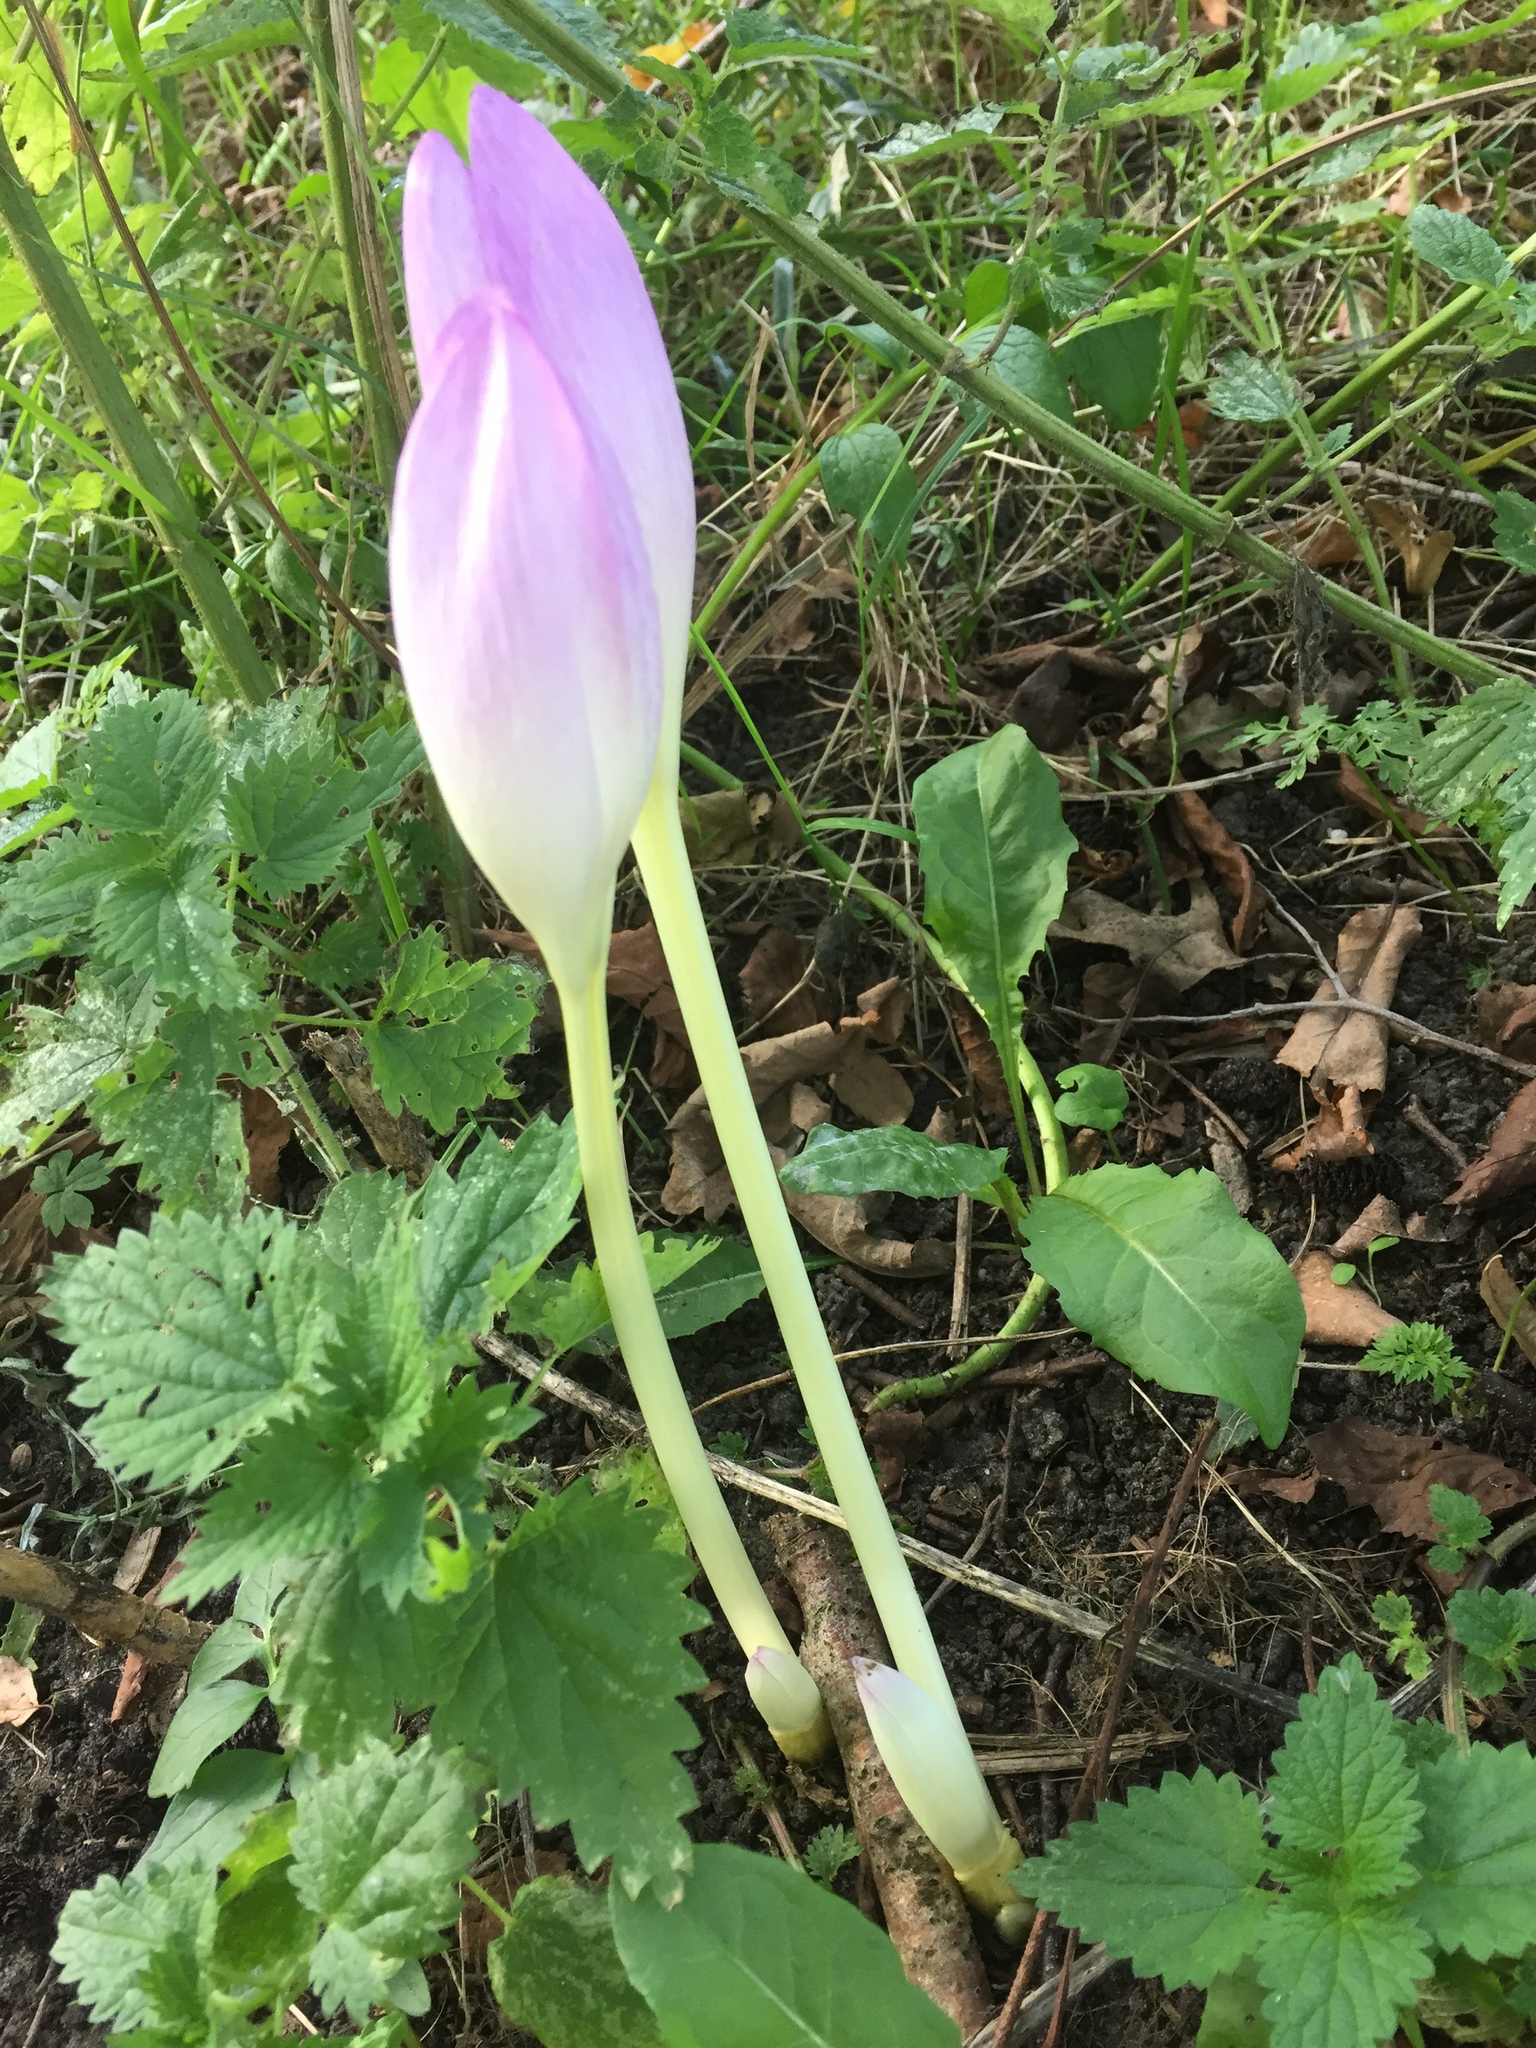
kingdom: Plantae
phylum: Tracheophyta
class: Liliopsida
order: Liliales
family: Colchicaceae
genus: Colchicum
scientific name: Colchicum autumnale
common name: Autumn crocus
